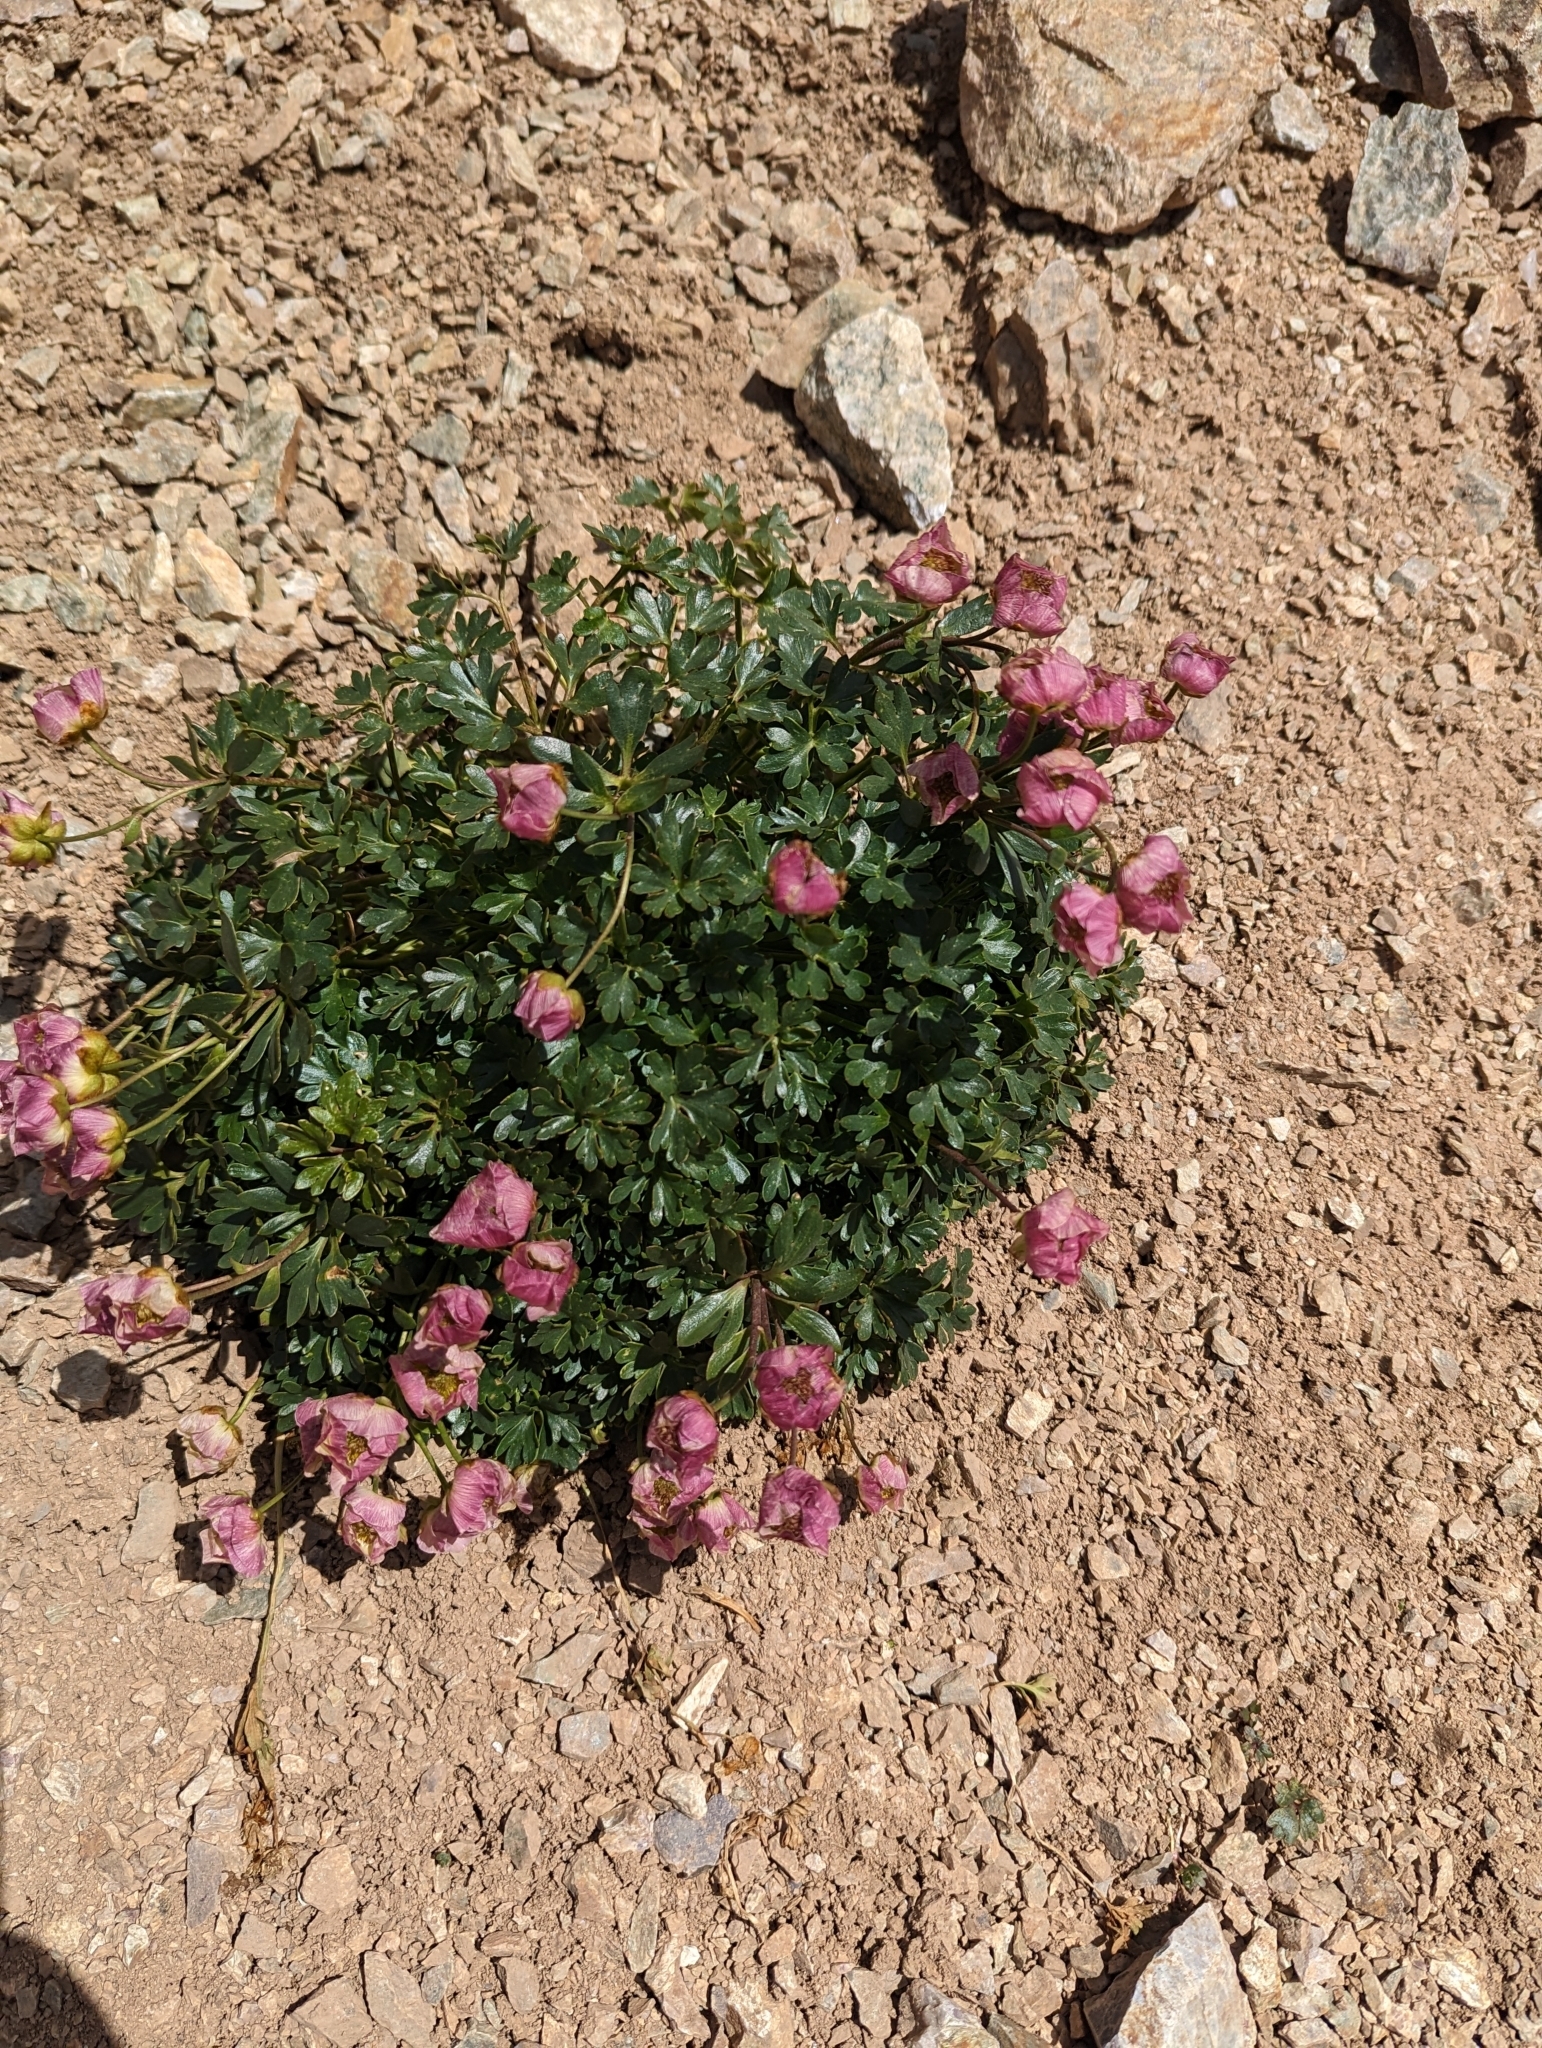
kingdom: Plantae
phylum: Tracheophyta
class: Magnoliopsida
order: Ranunculales
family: Ranunculaceae
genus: Ranunculus
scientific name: Ranunculus glacialis
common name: Glacier buttercup
